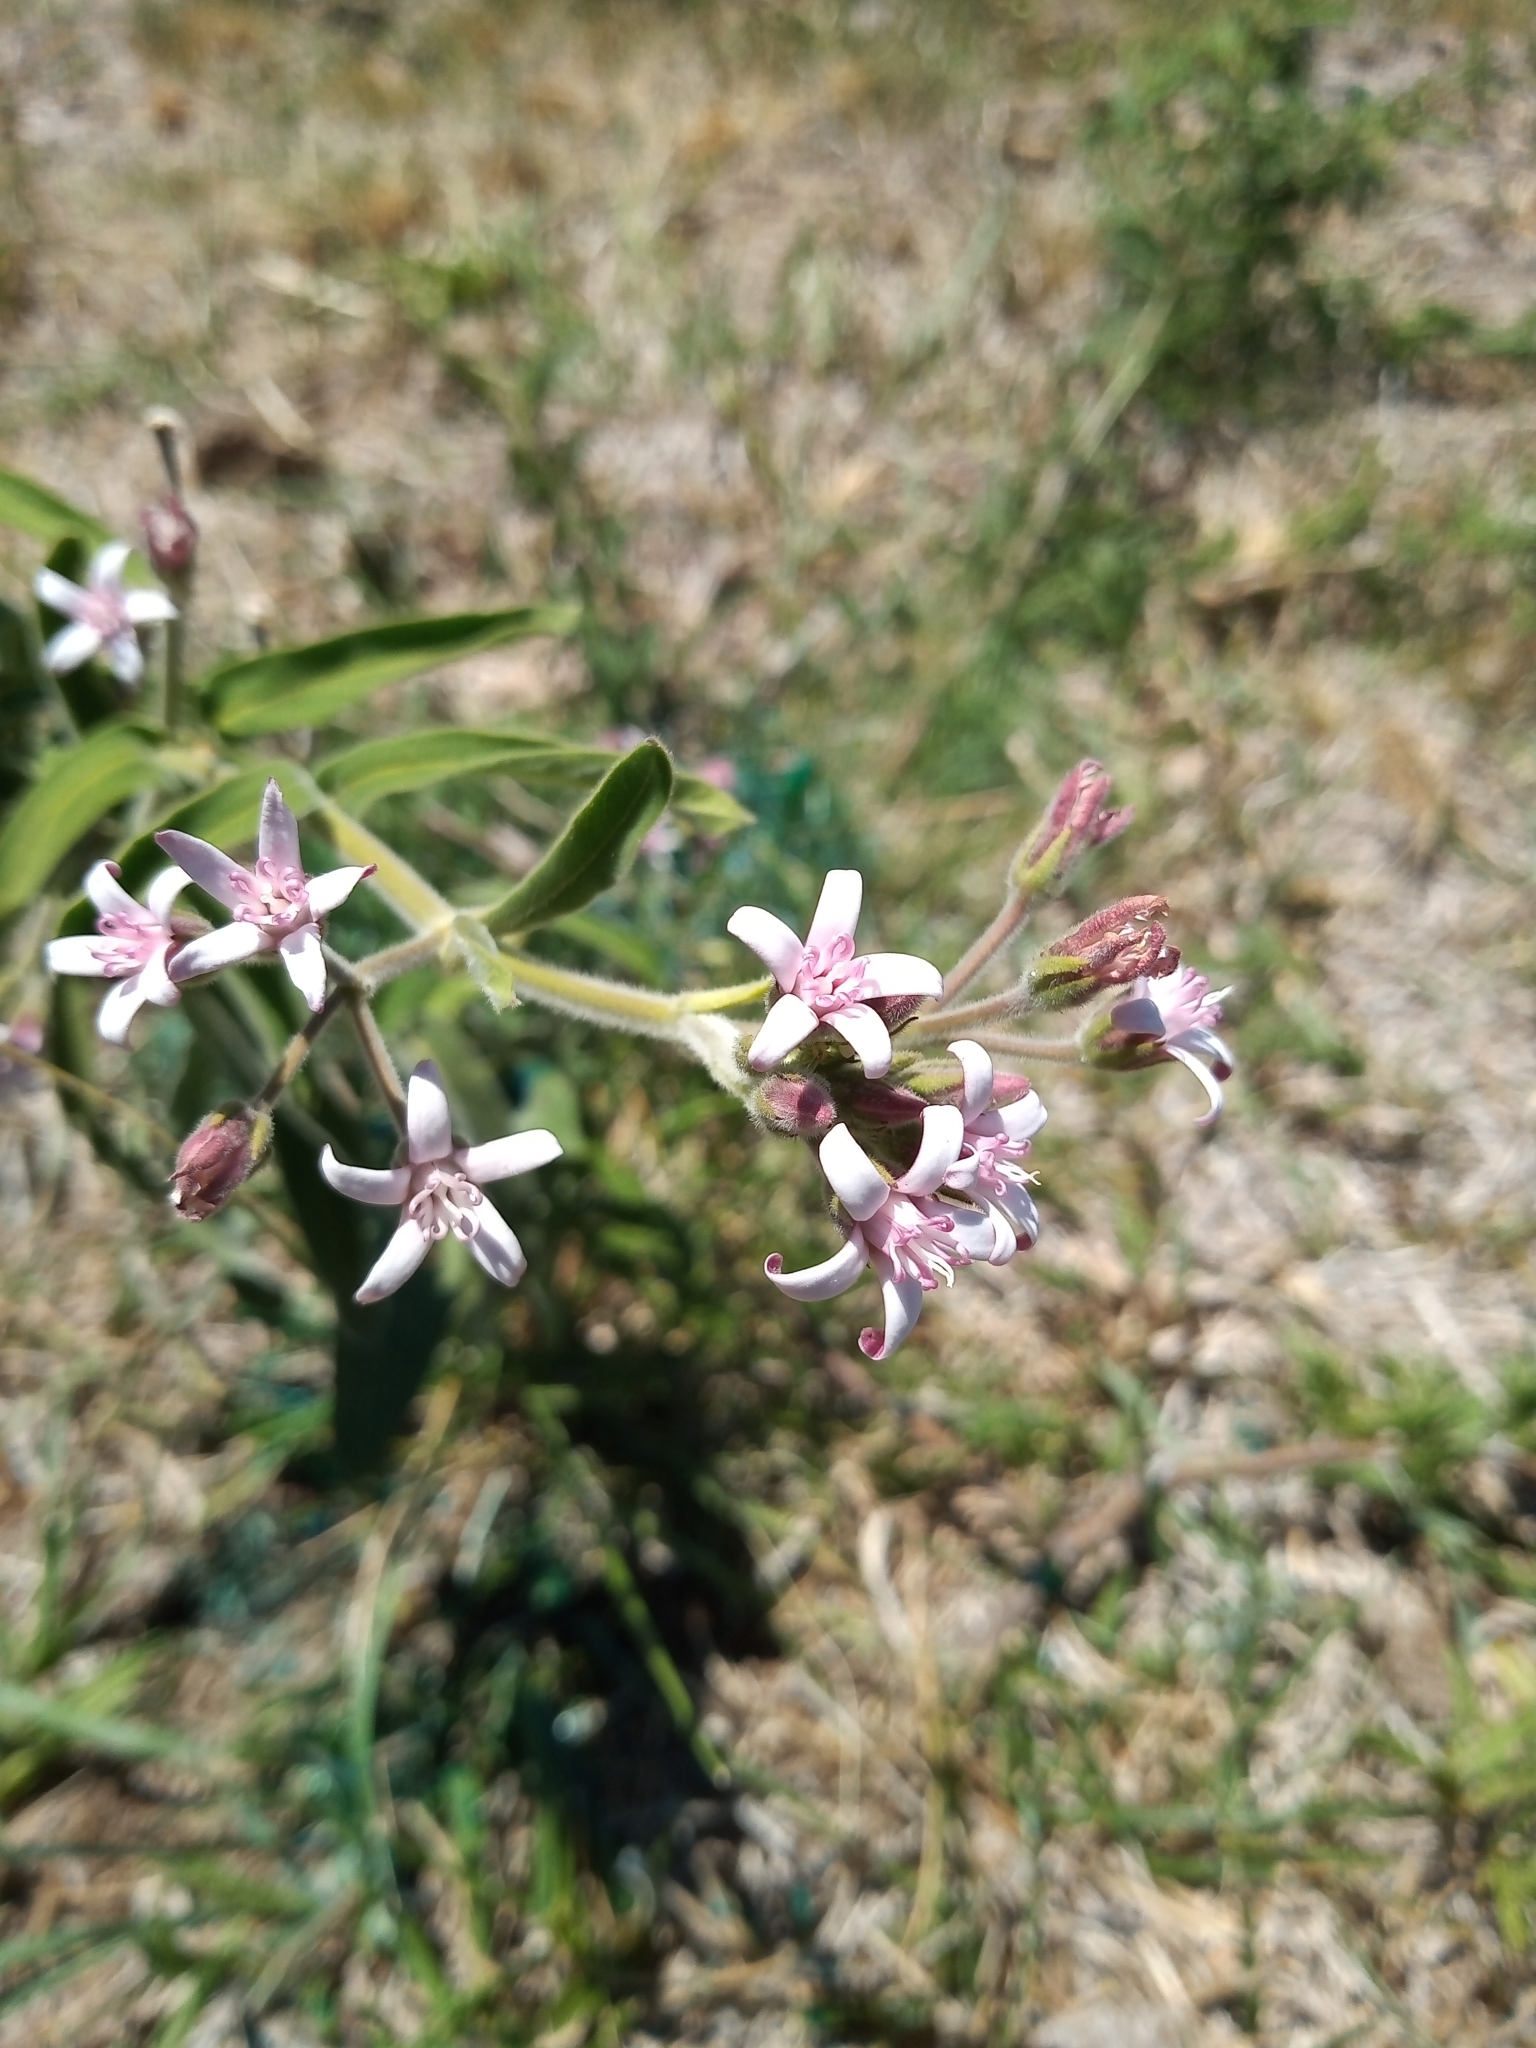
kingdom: Plantae
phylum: Tracheophyta
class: Magnoliopsida
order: Gentianales
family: Apocynaceae
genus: Oxypetalum
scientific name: Oxypetalum solanoides
